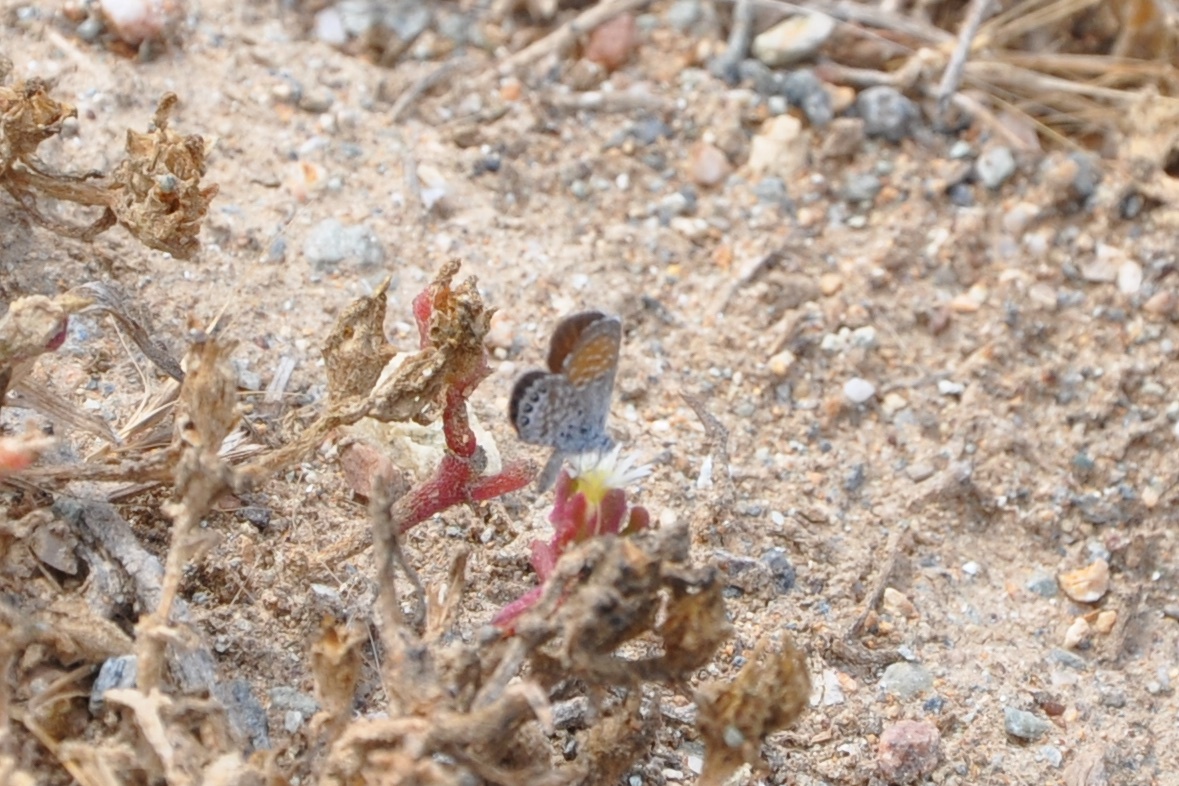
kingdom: Animalia
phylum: Arthropoda
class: Insecta
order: Lepidoptera
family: Lycaenidae
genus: Brephidium
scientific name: Brephidium exilis
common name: Pygmy blue
